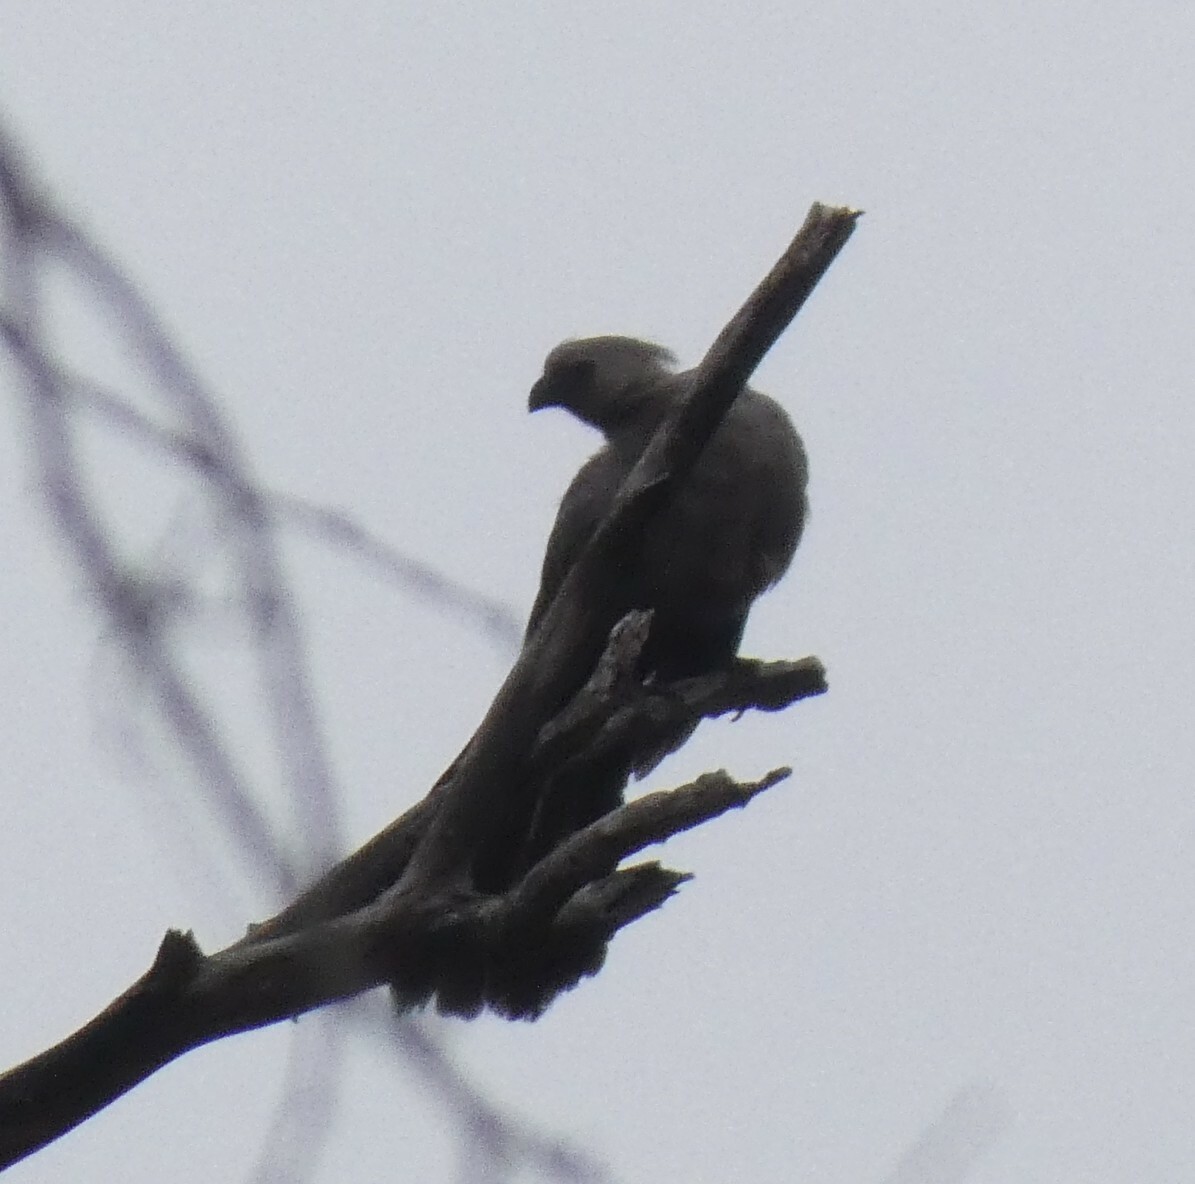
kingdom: Animalia
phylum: Chordata
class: Aves
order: Musophagiformes
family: Musophagidae
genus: Corythaixoides
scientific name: Corythaixoides concolor
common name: Grey go-away-bird
